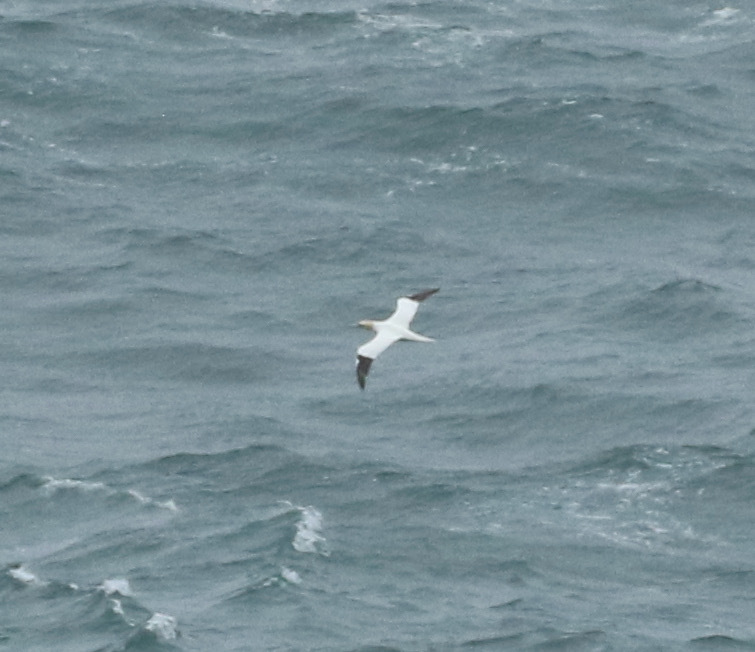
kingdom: Animalia
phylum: Chordata
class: Aves
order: Suliformes
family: Sulidae
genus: Morus
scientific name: Morus bassanus
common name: Northern gannet
